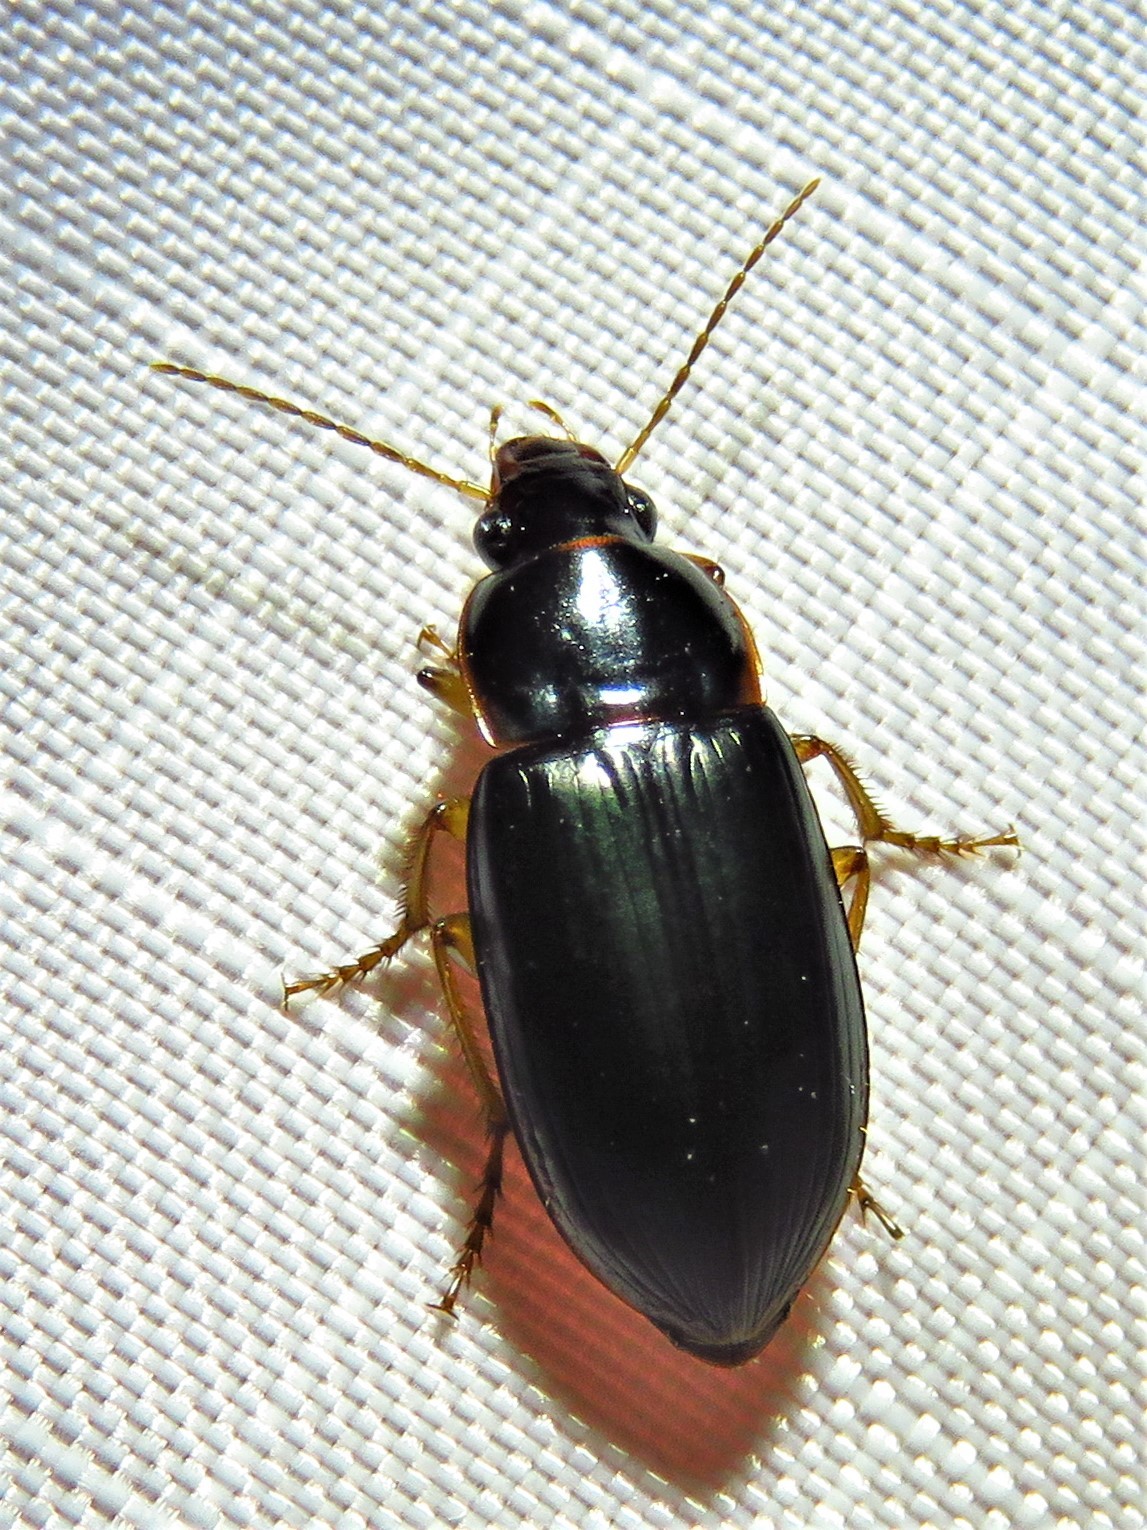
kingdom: Animalia
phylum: Arthropoda
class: Insecta
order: Coleoptera
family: Carabidae
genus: Notiobia
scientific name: Notiobia terminata
